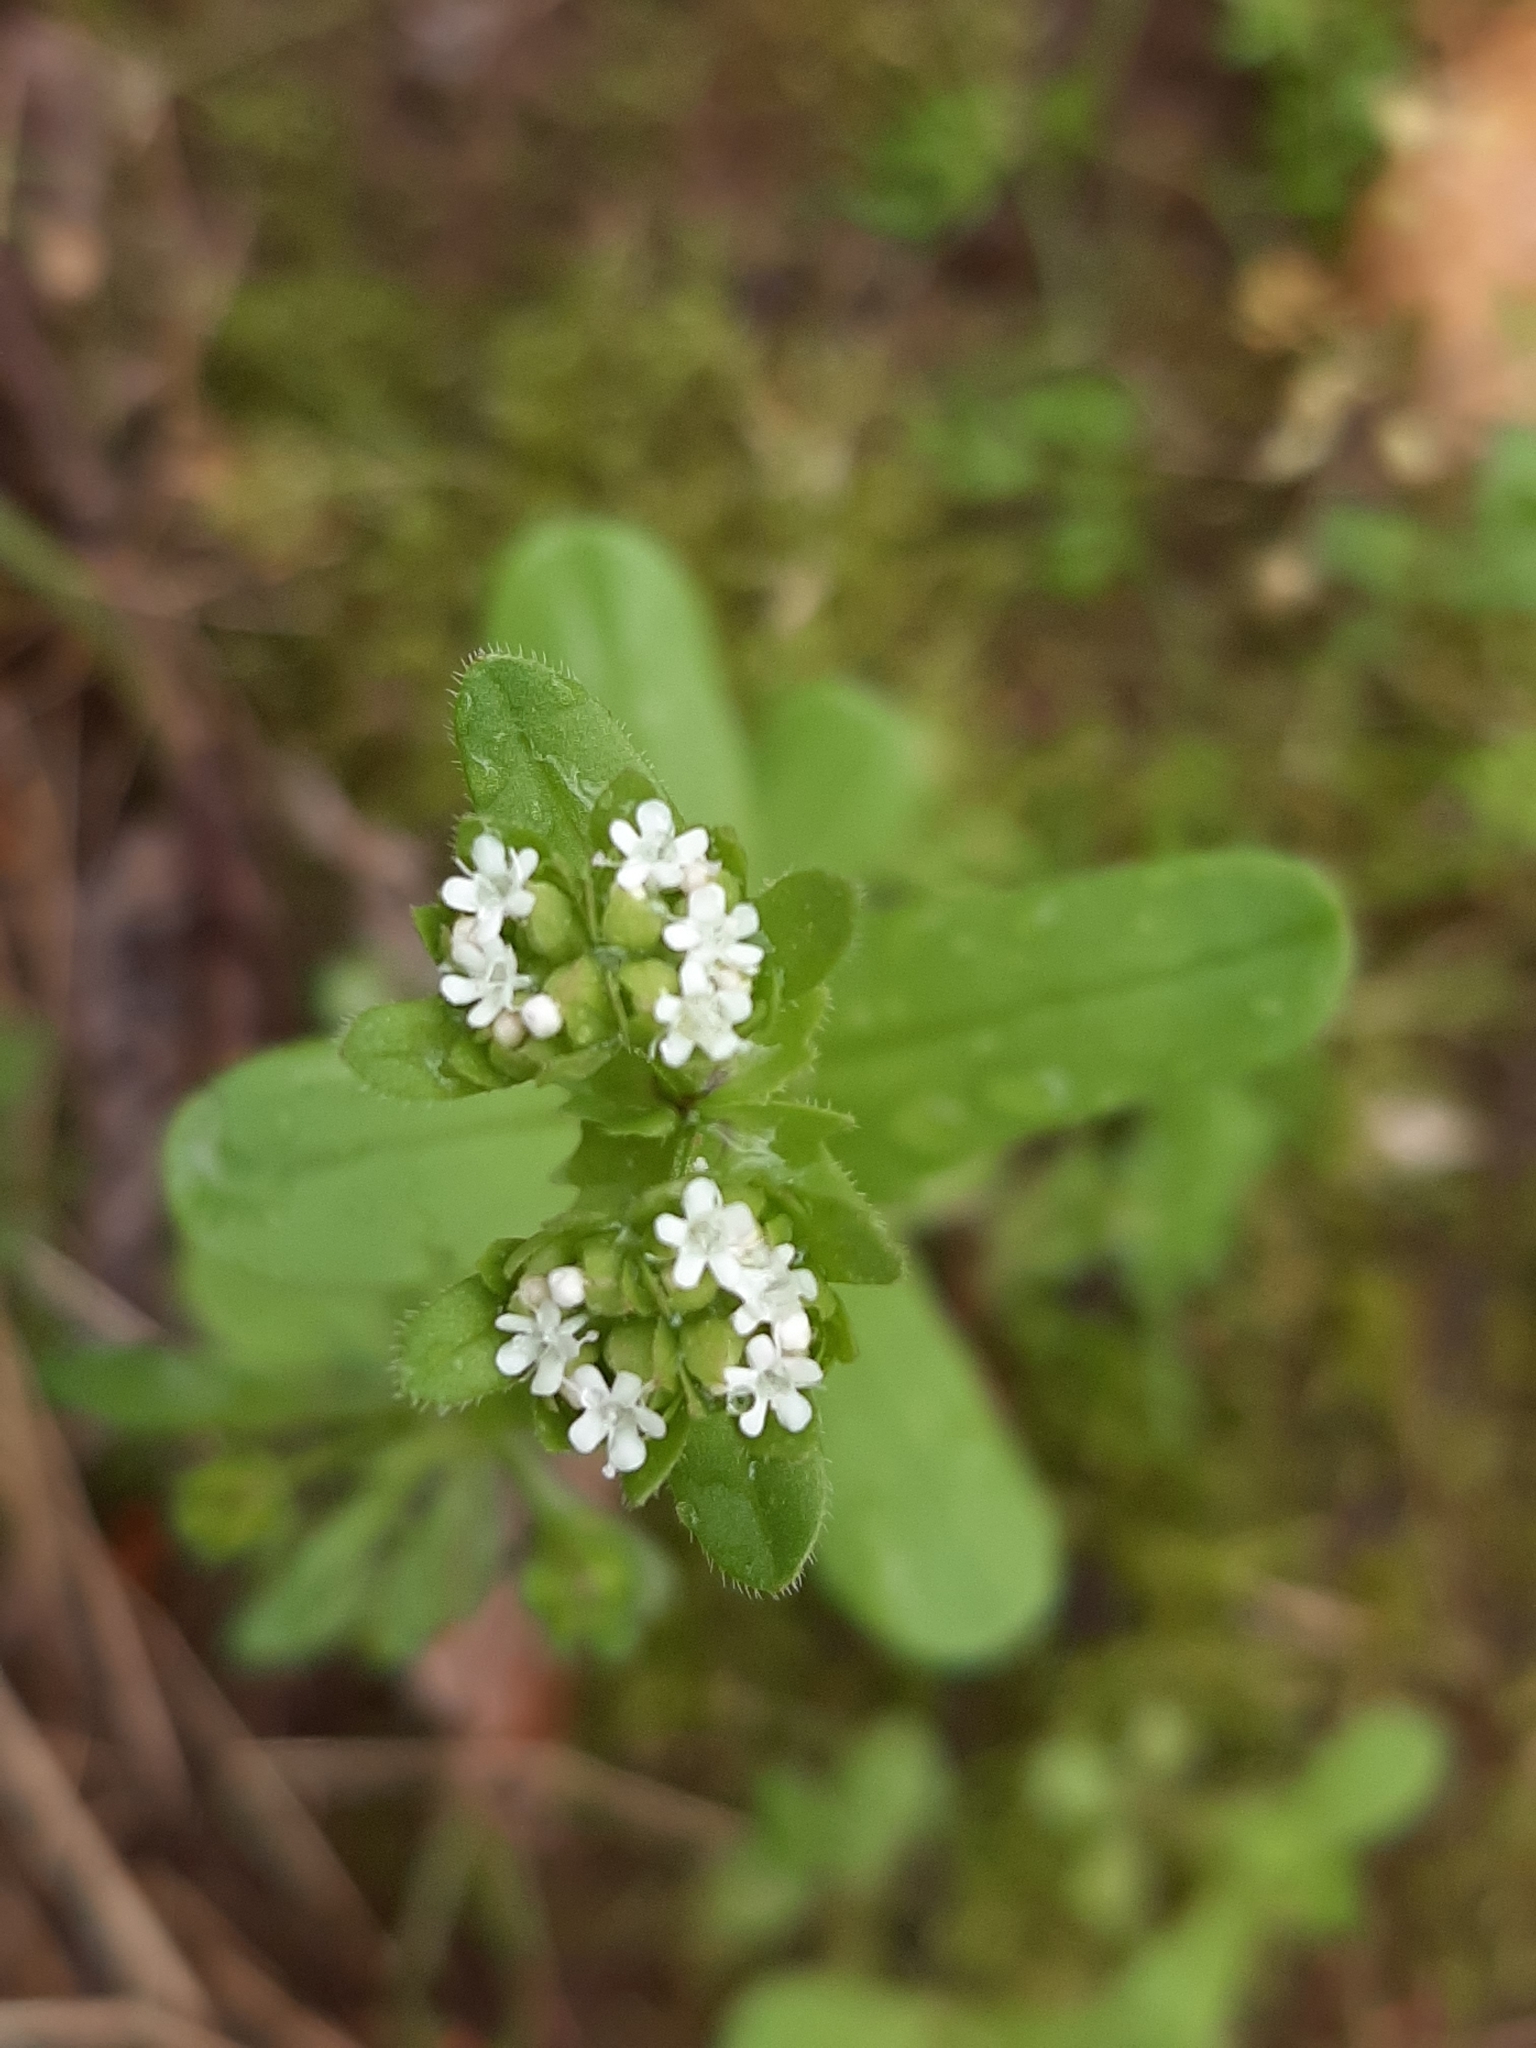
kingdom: Plantae
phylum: Tracheophyta
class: Magnoliopsida
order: Dipsacales
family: Caprifoliaceae
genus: Valerianella
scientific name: Valerianella radiata
